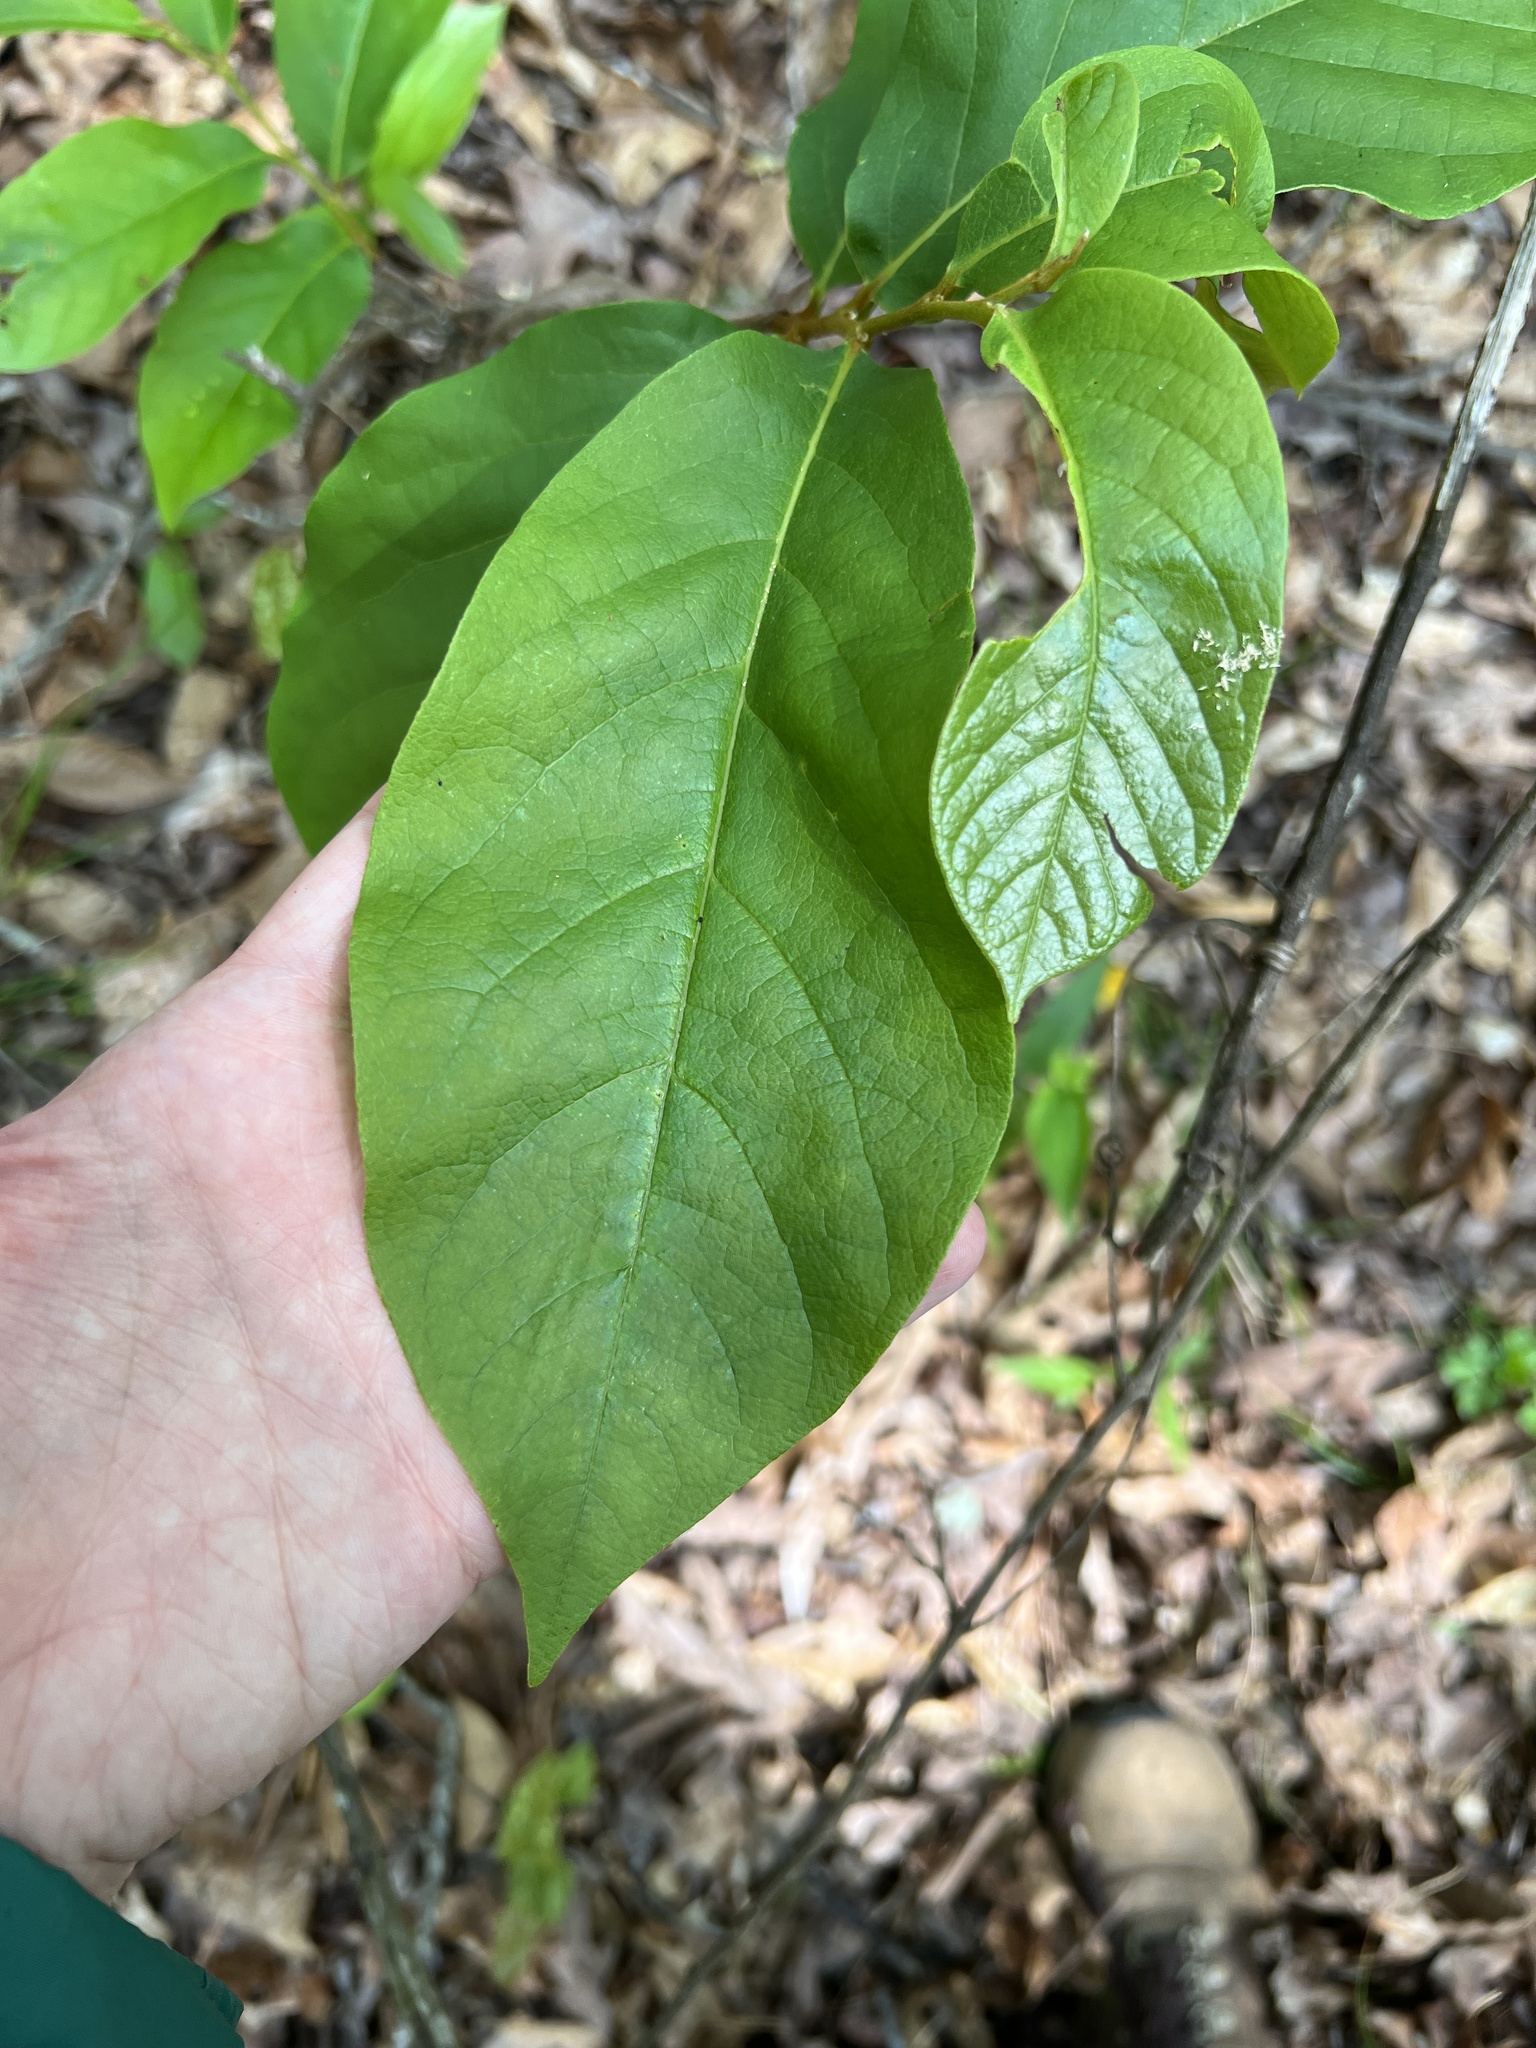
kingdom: Plantae
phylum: Tracheophyta
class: Magnoliopsida
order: Magnoliales
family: Annonaceae
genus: Asimina
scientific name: Asimina parviflora
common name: Dwarf pawpaw
